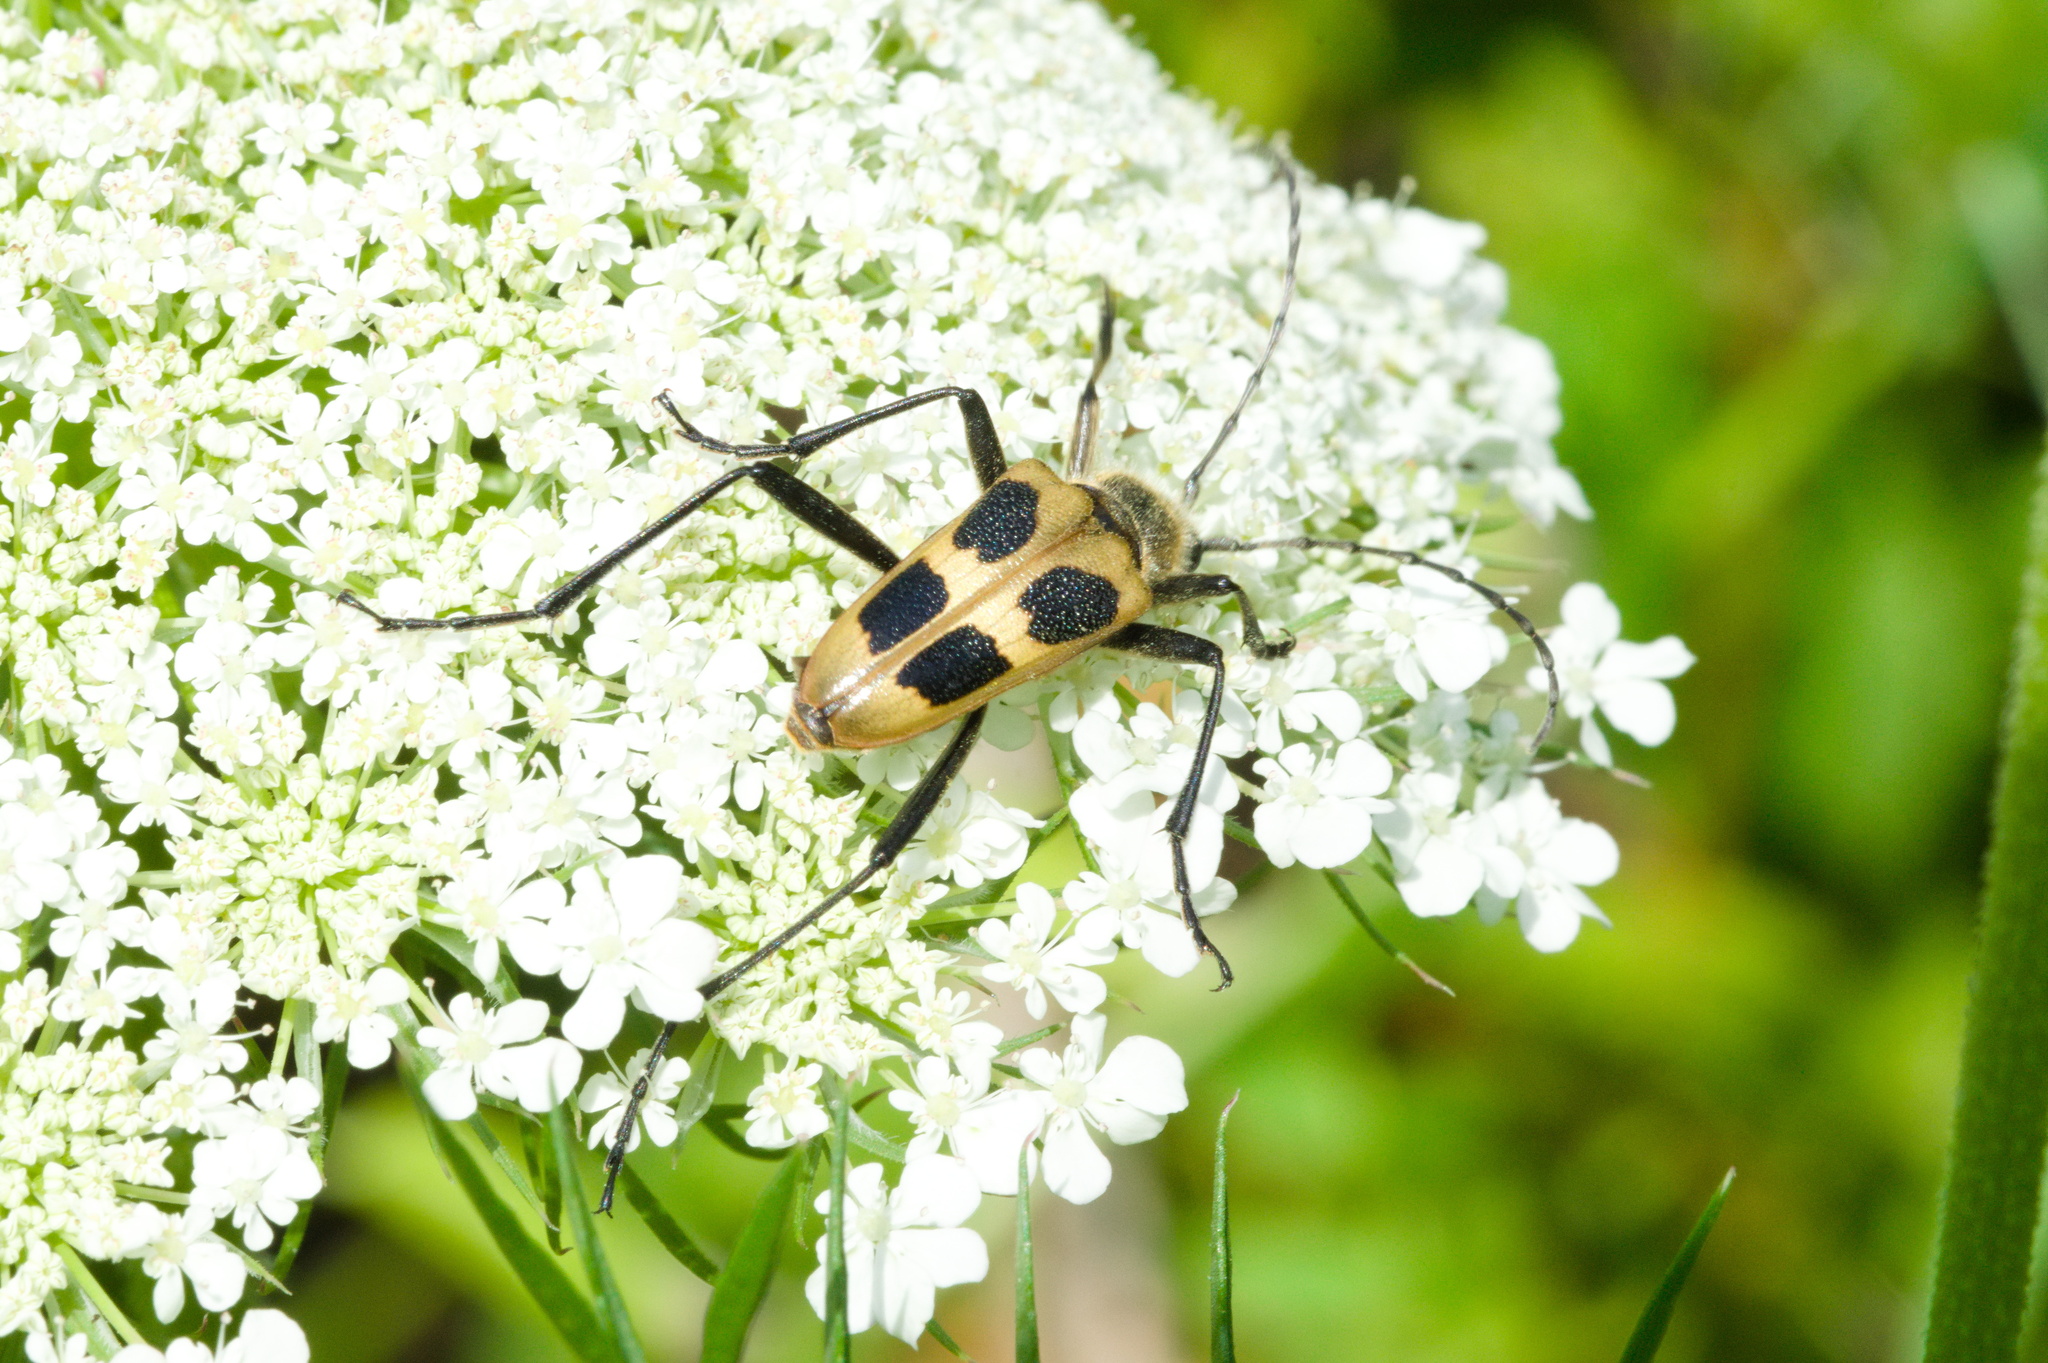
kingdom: Animalia
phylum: Arthropoda
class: Insecta
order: Coleoptera
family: Cerambycidae
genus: Pachyta
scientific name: Pachyta quadrimaculata
